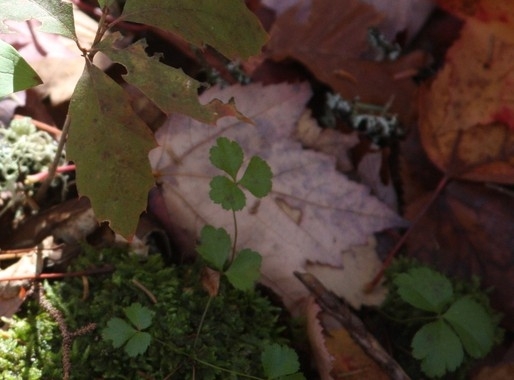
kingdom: Plantae
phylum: Tracheophyta
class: Magnoliopsida
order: Ranunculales
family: Ranunculaceae
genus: Coptis
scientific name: Coptis trifolia
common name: Canker-root
